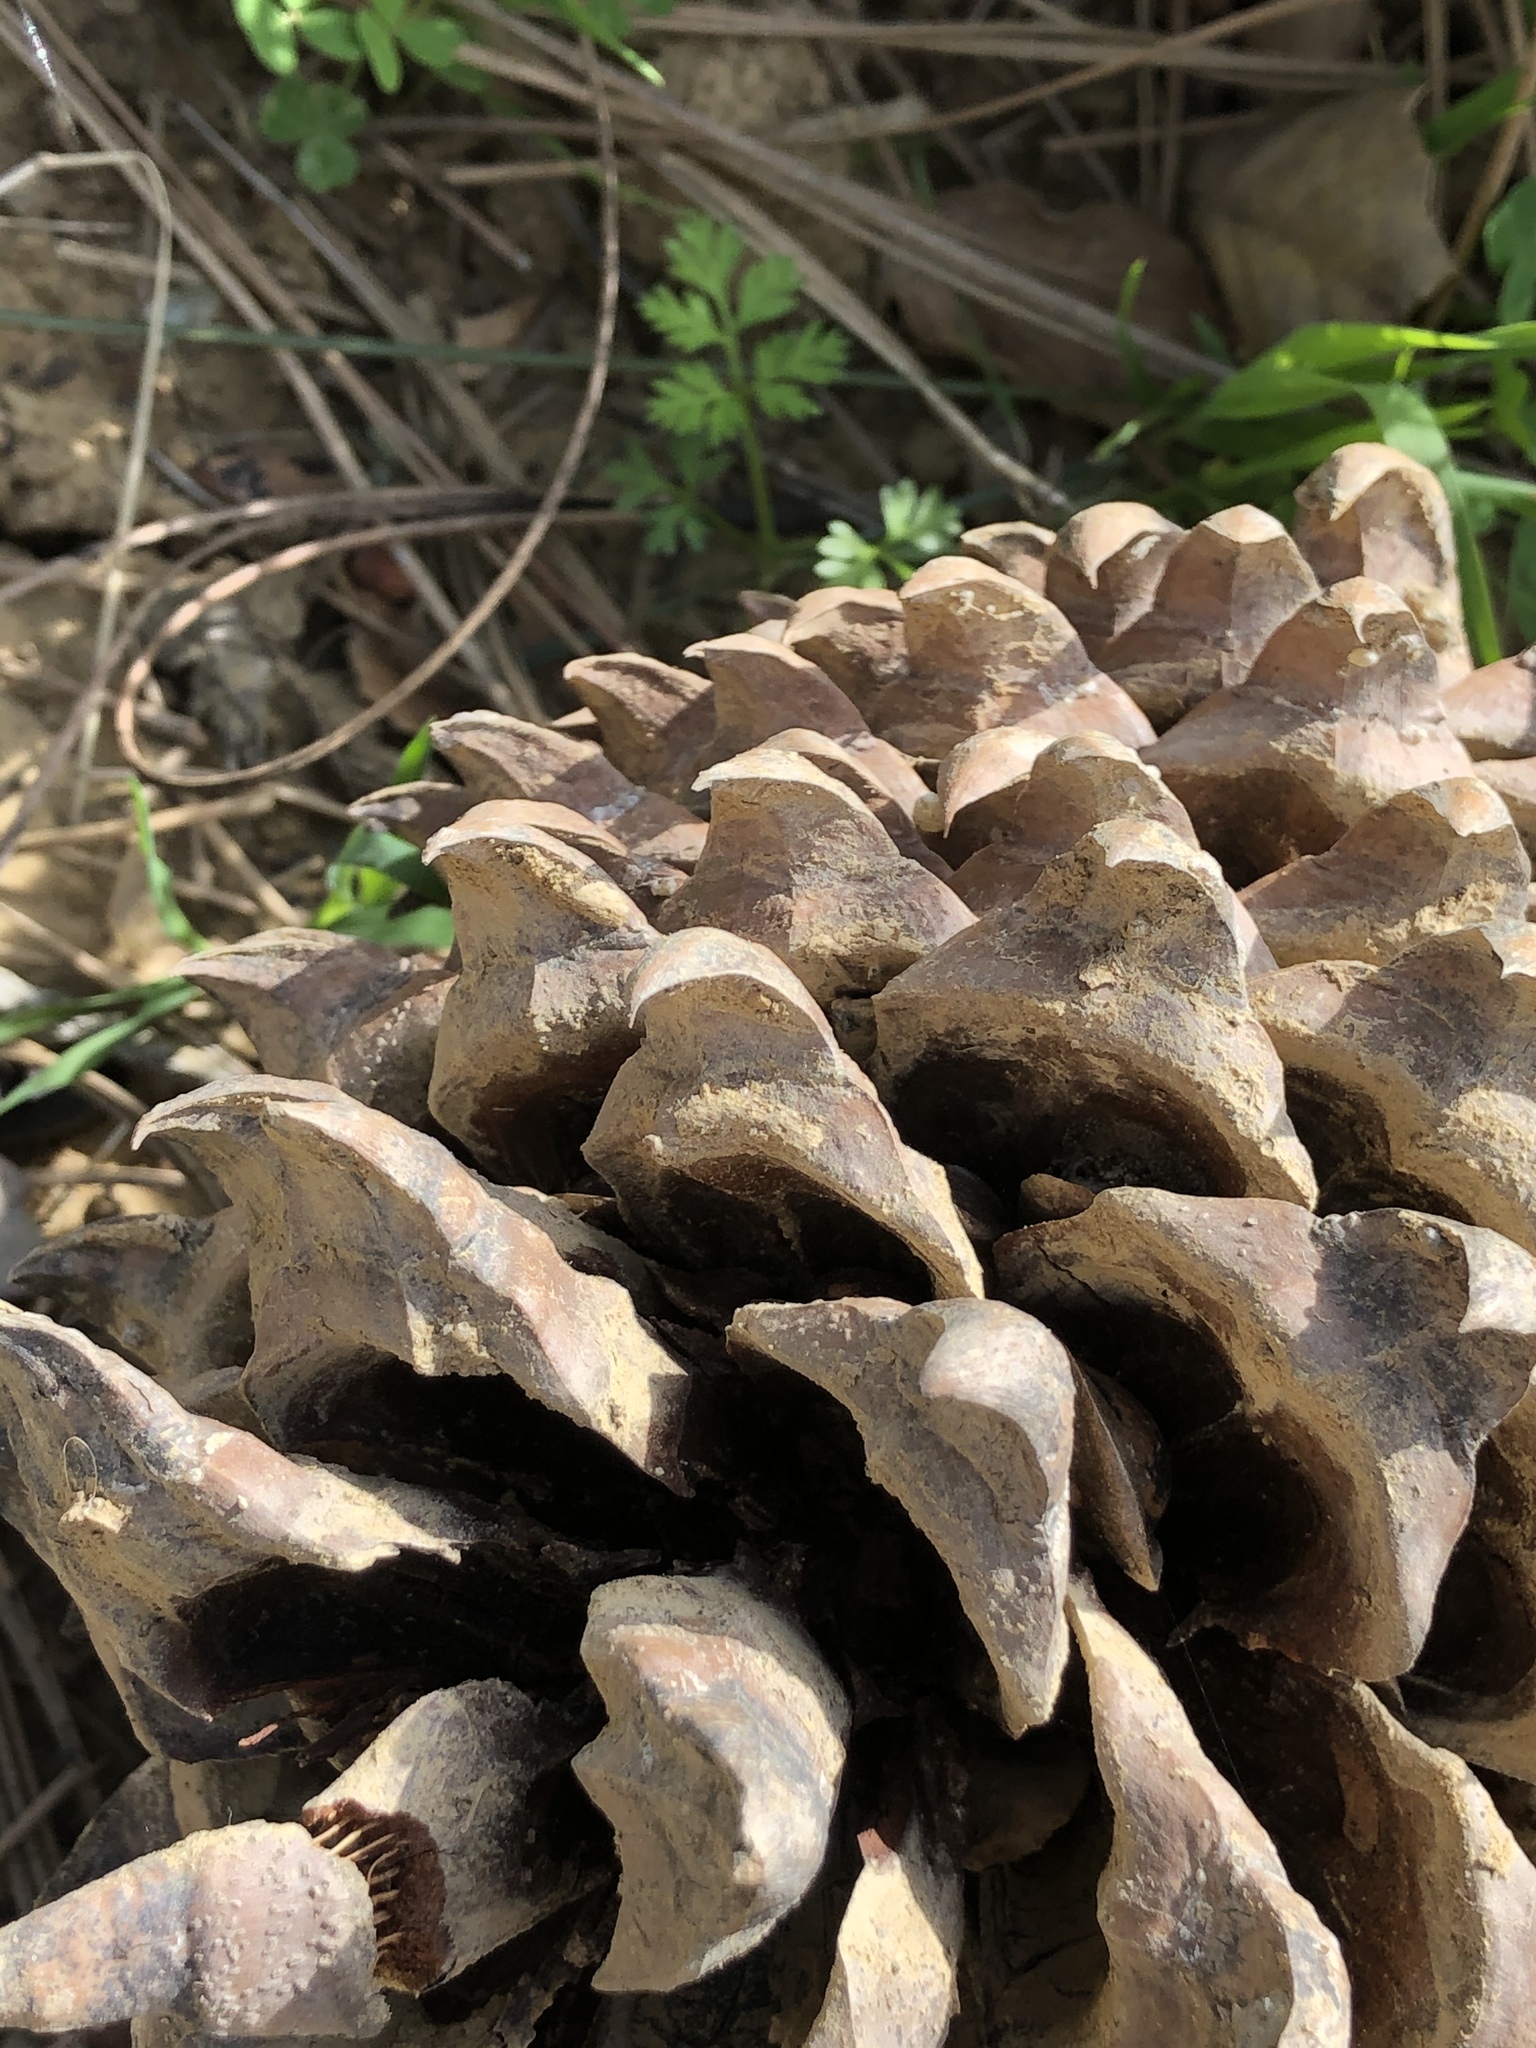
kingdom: Plantae
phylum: Tracheophyta
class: Pinopsida
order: Pinales
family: Pinaceae
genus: Pinus
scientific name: Pinus coulteri
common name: Coulter pine
